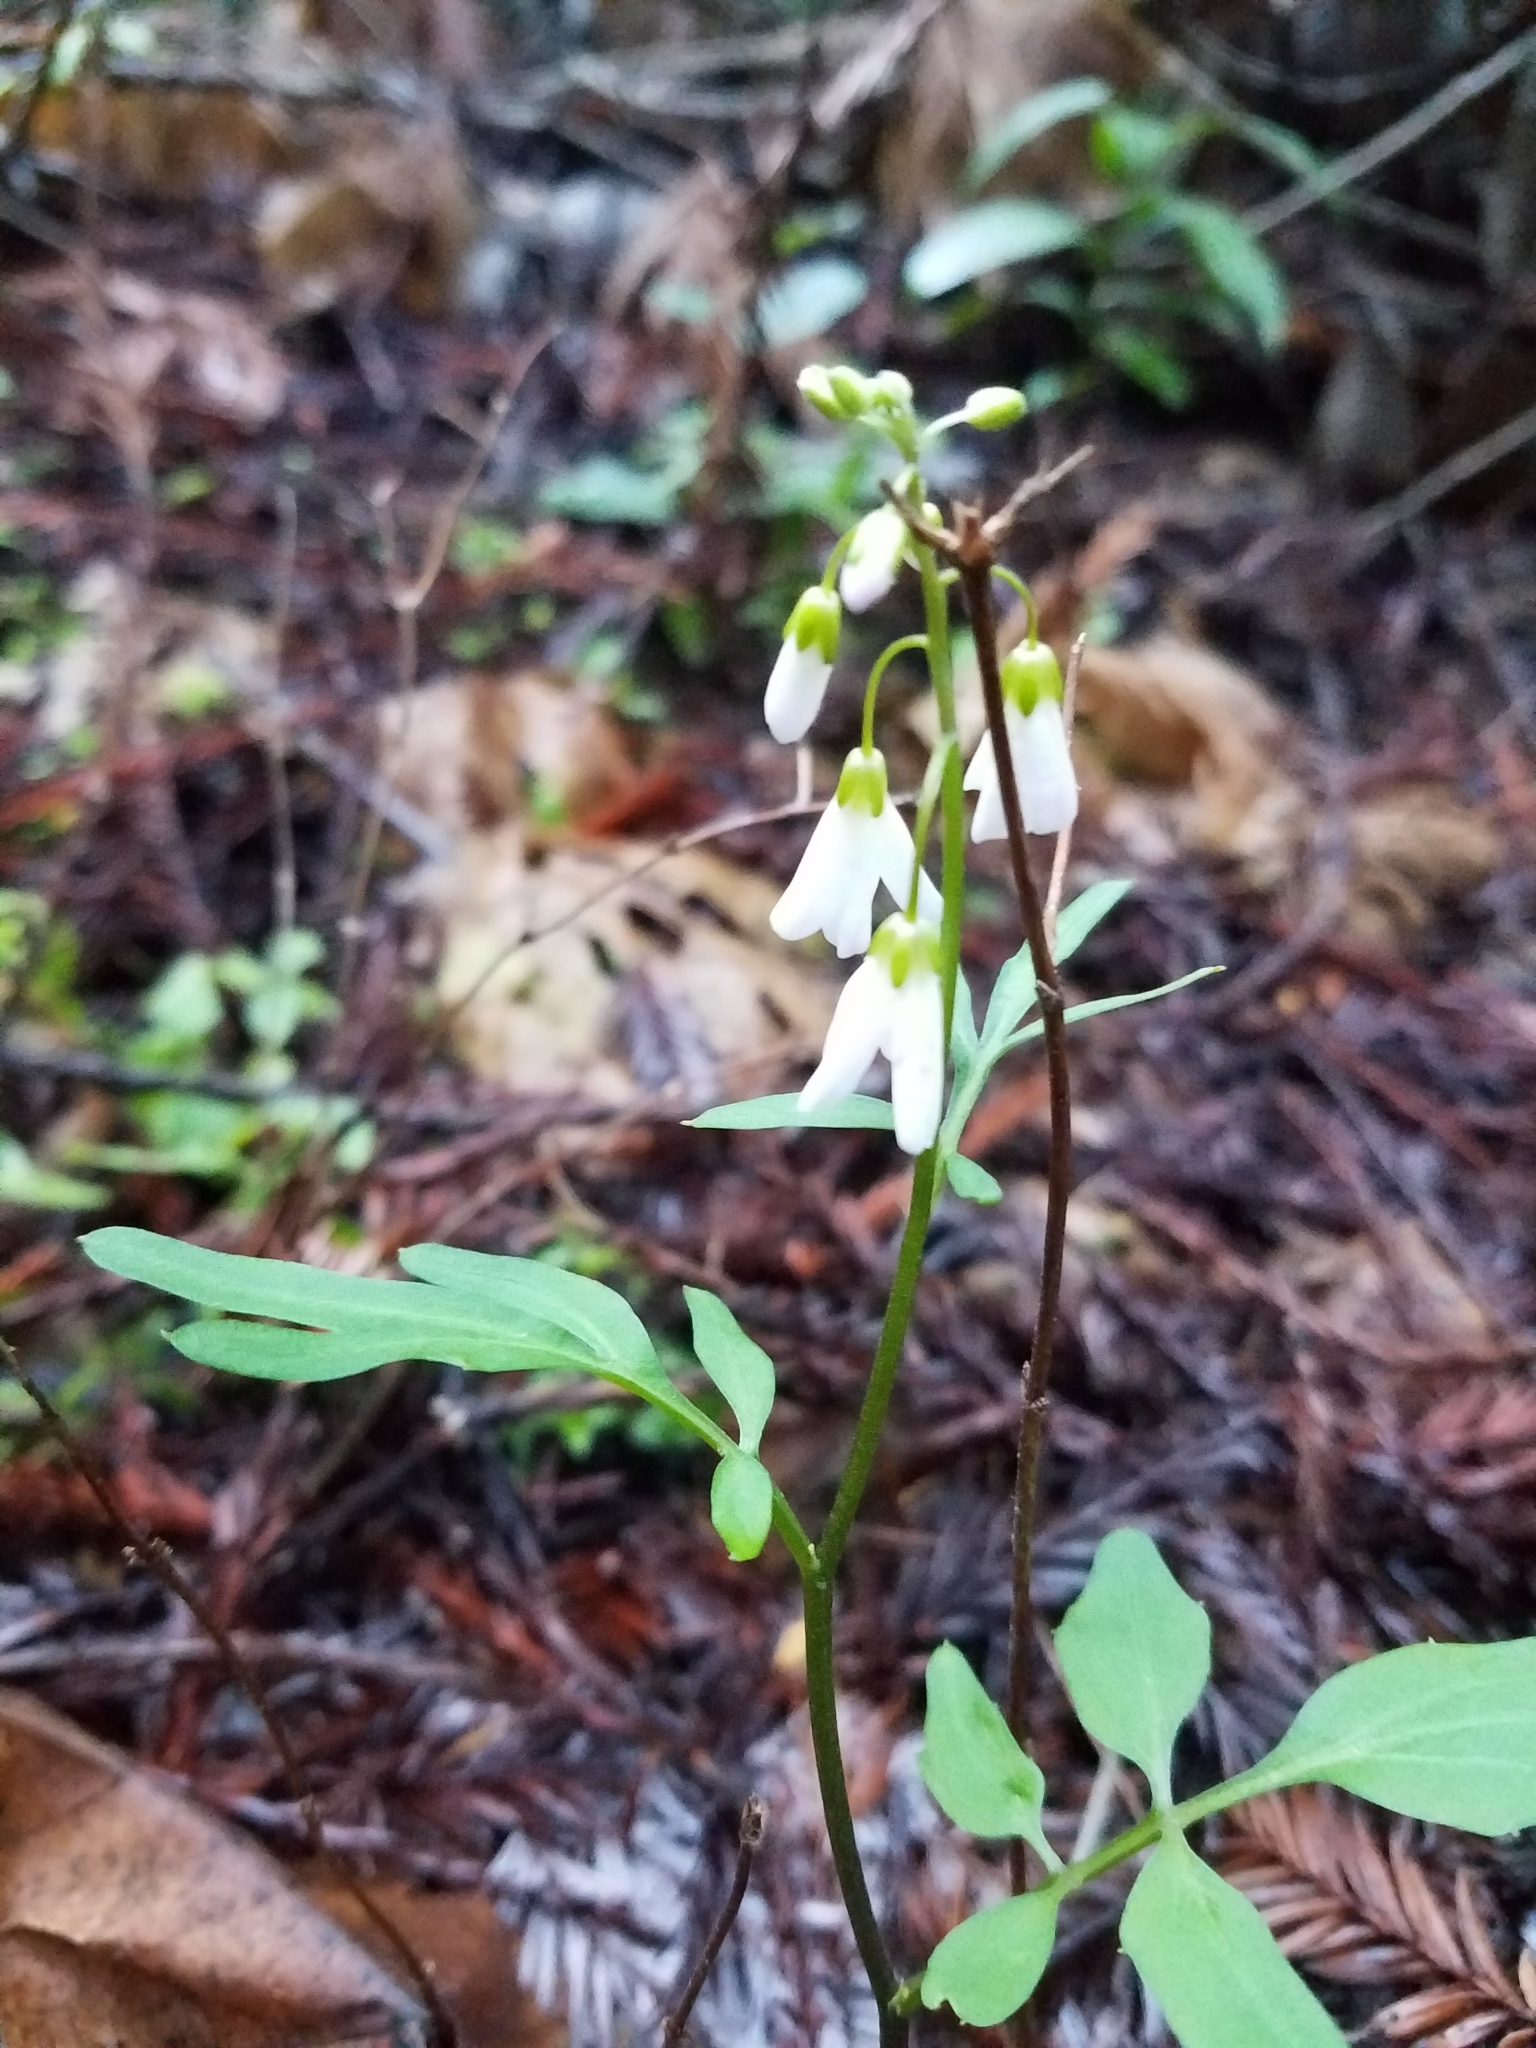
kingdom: Plantae
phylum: Tracheophyta
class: Magnoliopsida
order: Brassicales
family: Brassicaceae
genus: Cardamine
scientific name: Cardamine californica
